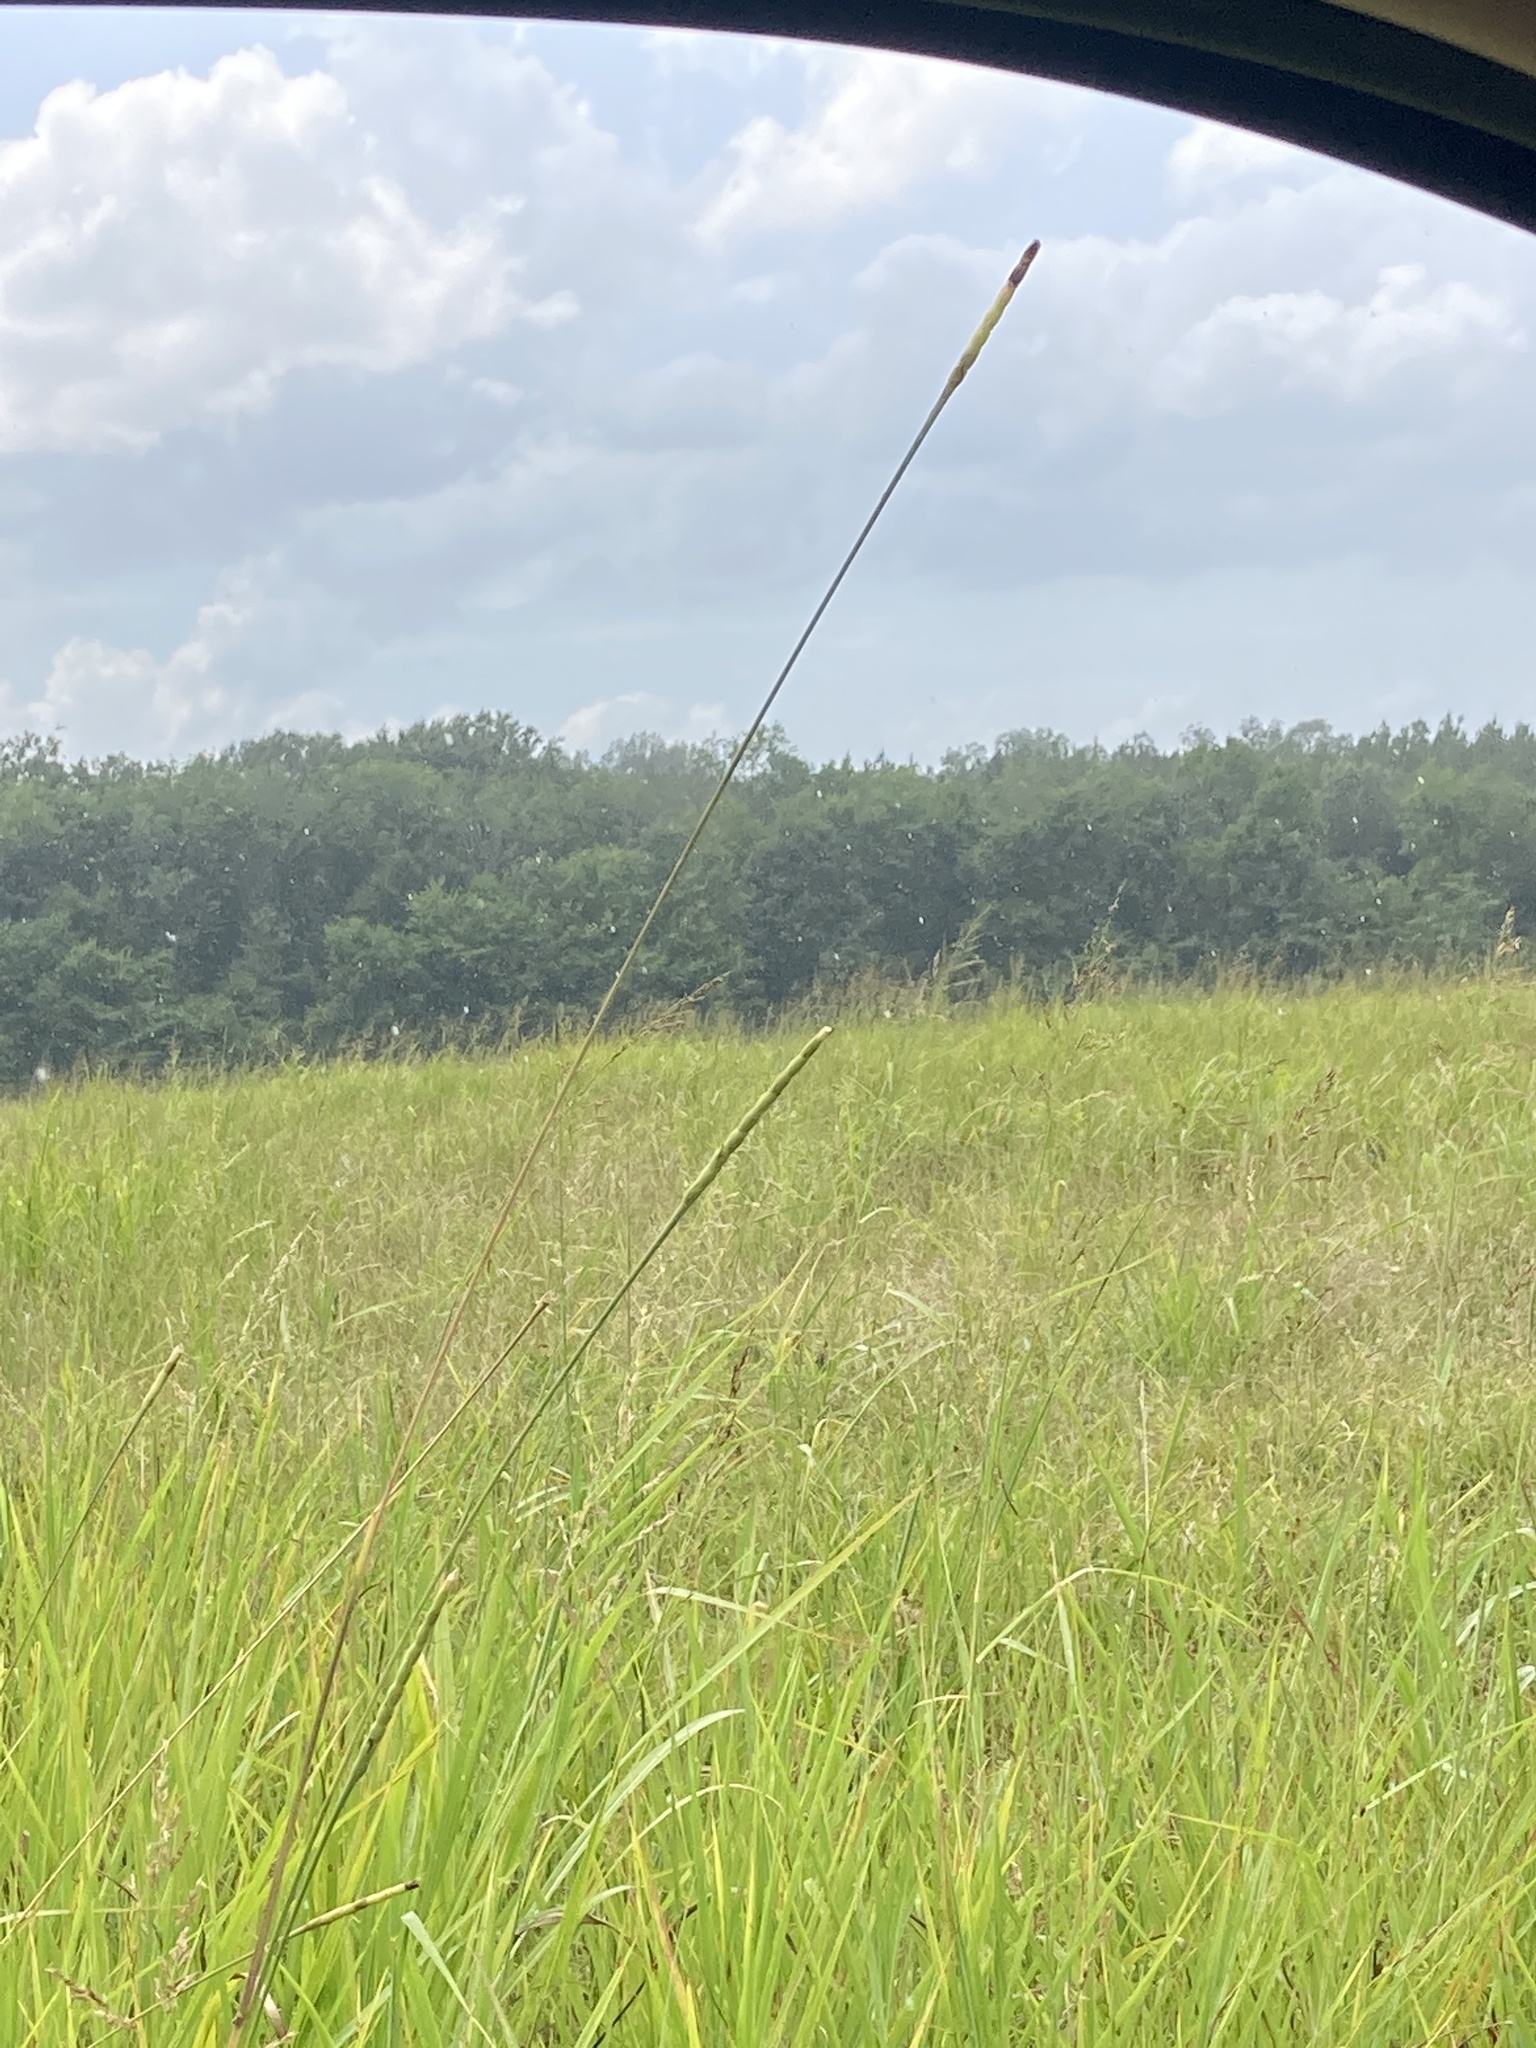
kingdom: Plantae
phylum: Tracheophyta
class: Liliopsida
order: Poales
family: Poaceae
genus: Tripsacum
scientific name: Tripsacum dactyloides
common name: Buffalo-grass
